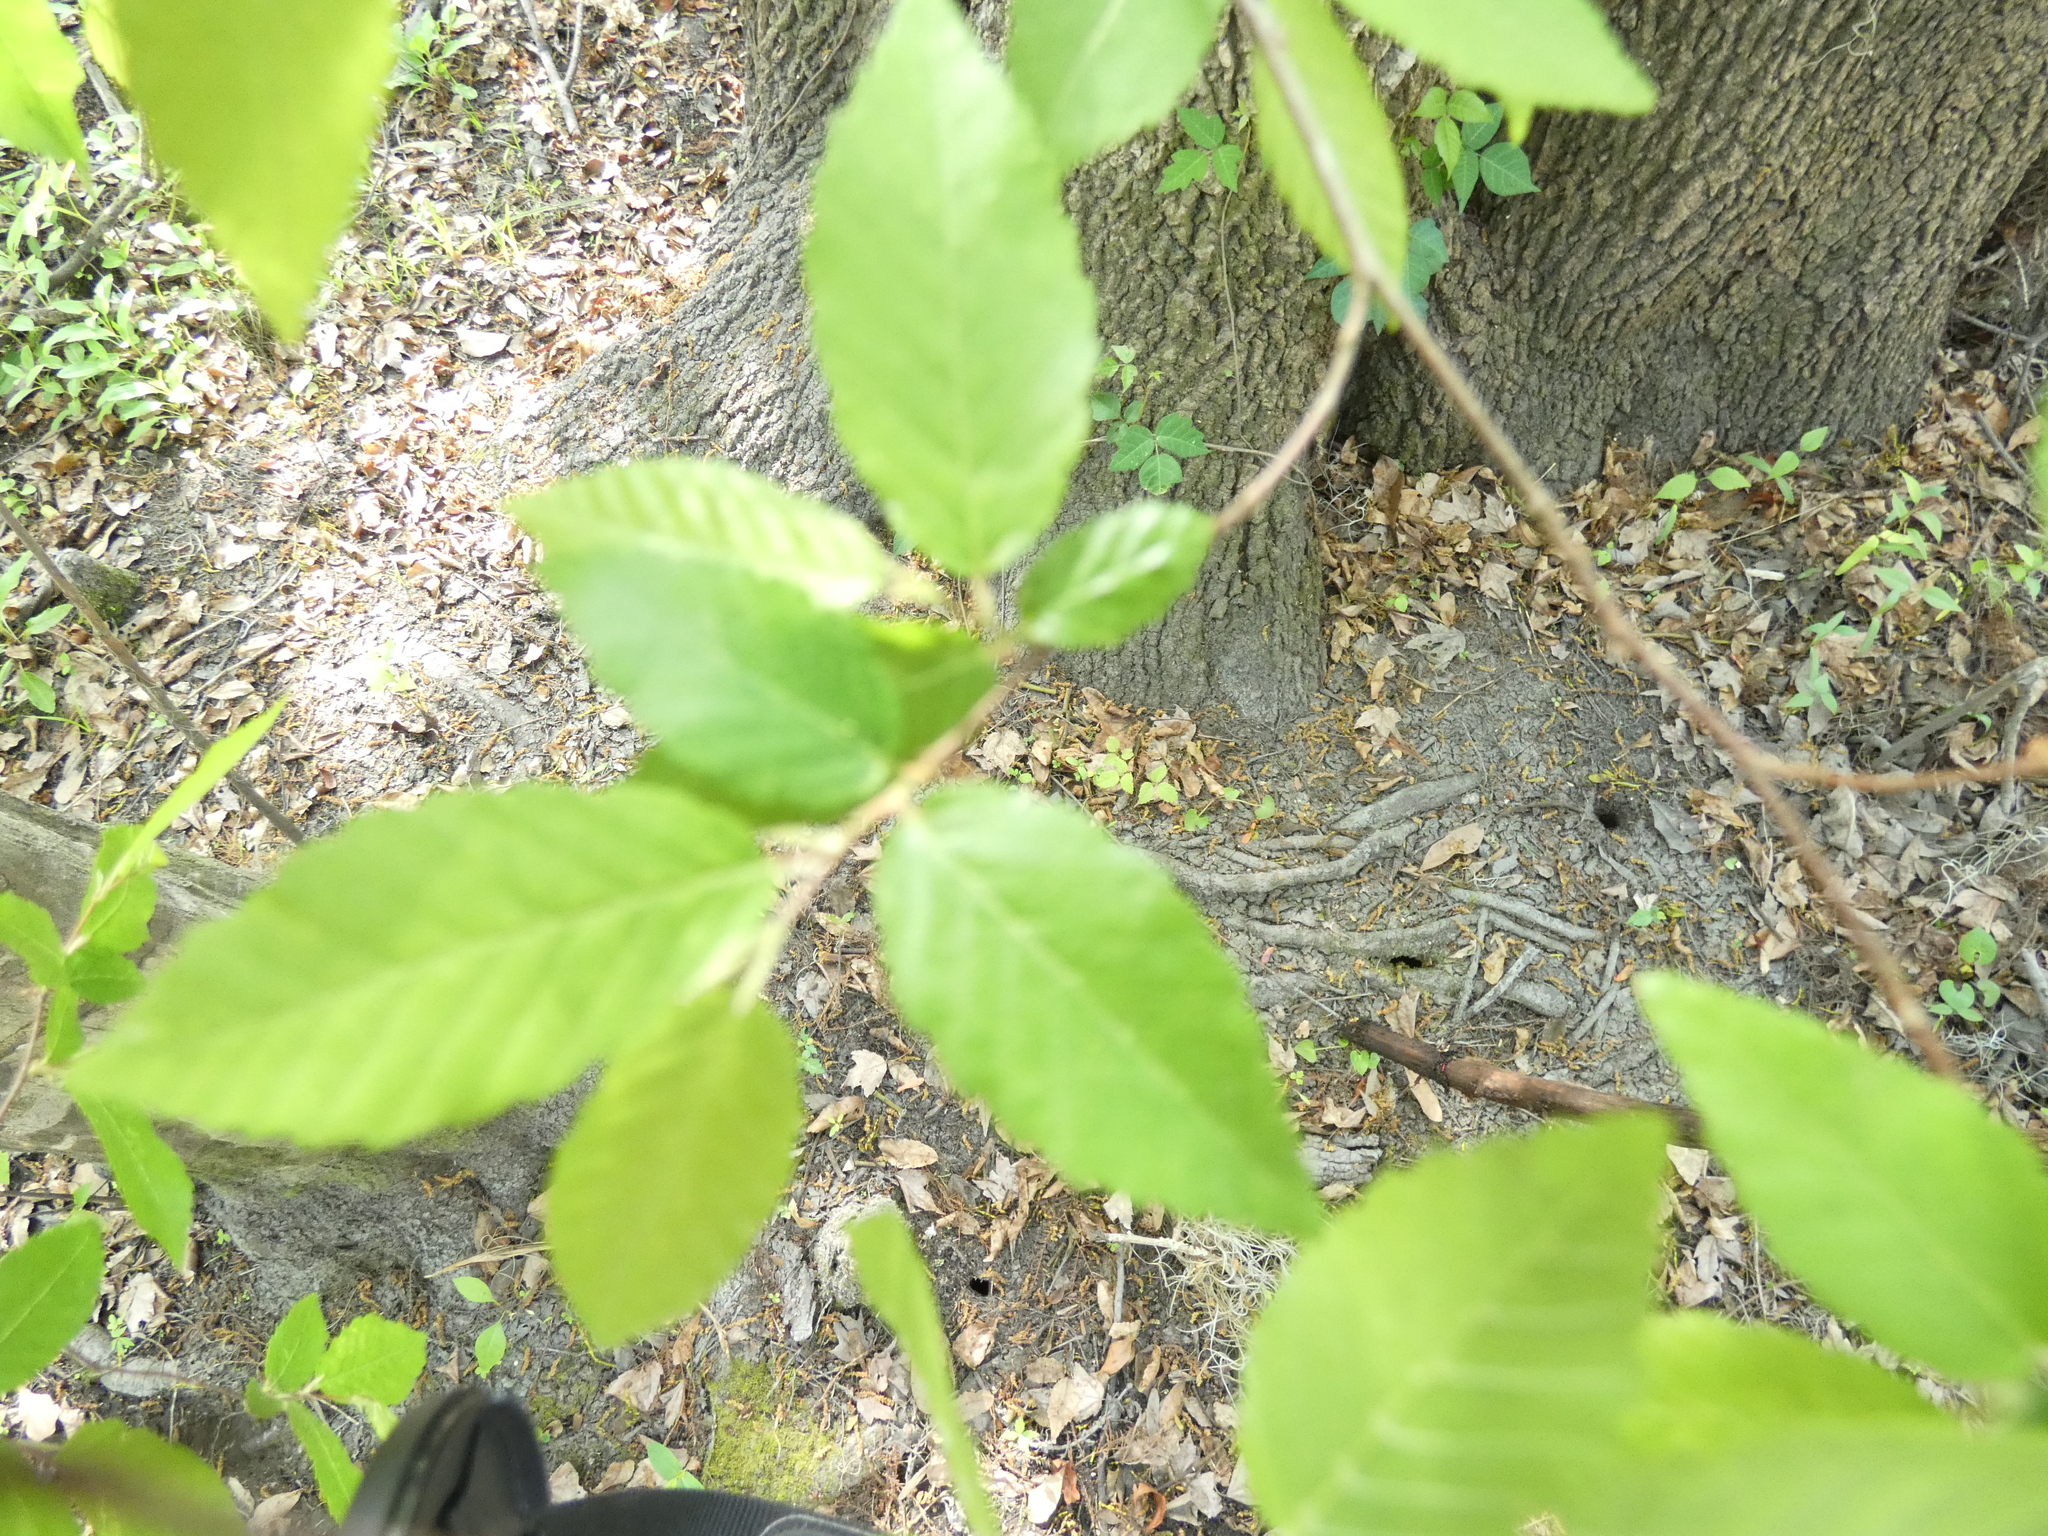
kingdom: Plantae
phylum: Tracheophyta
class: Magnoliopsida
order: Fagales
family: Betulaceae
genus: Carpinus
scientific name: Carpinus caroliniana
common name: American hornbeam
